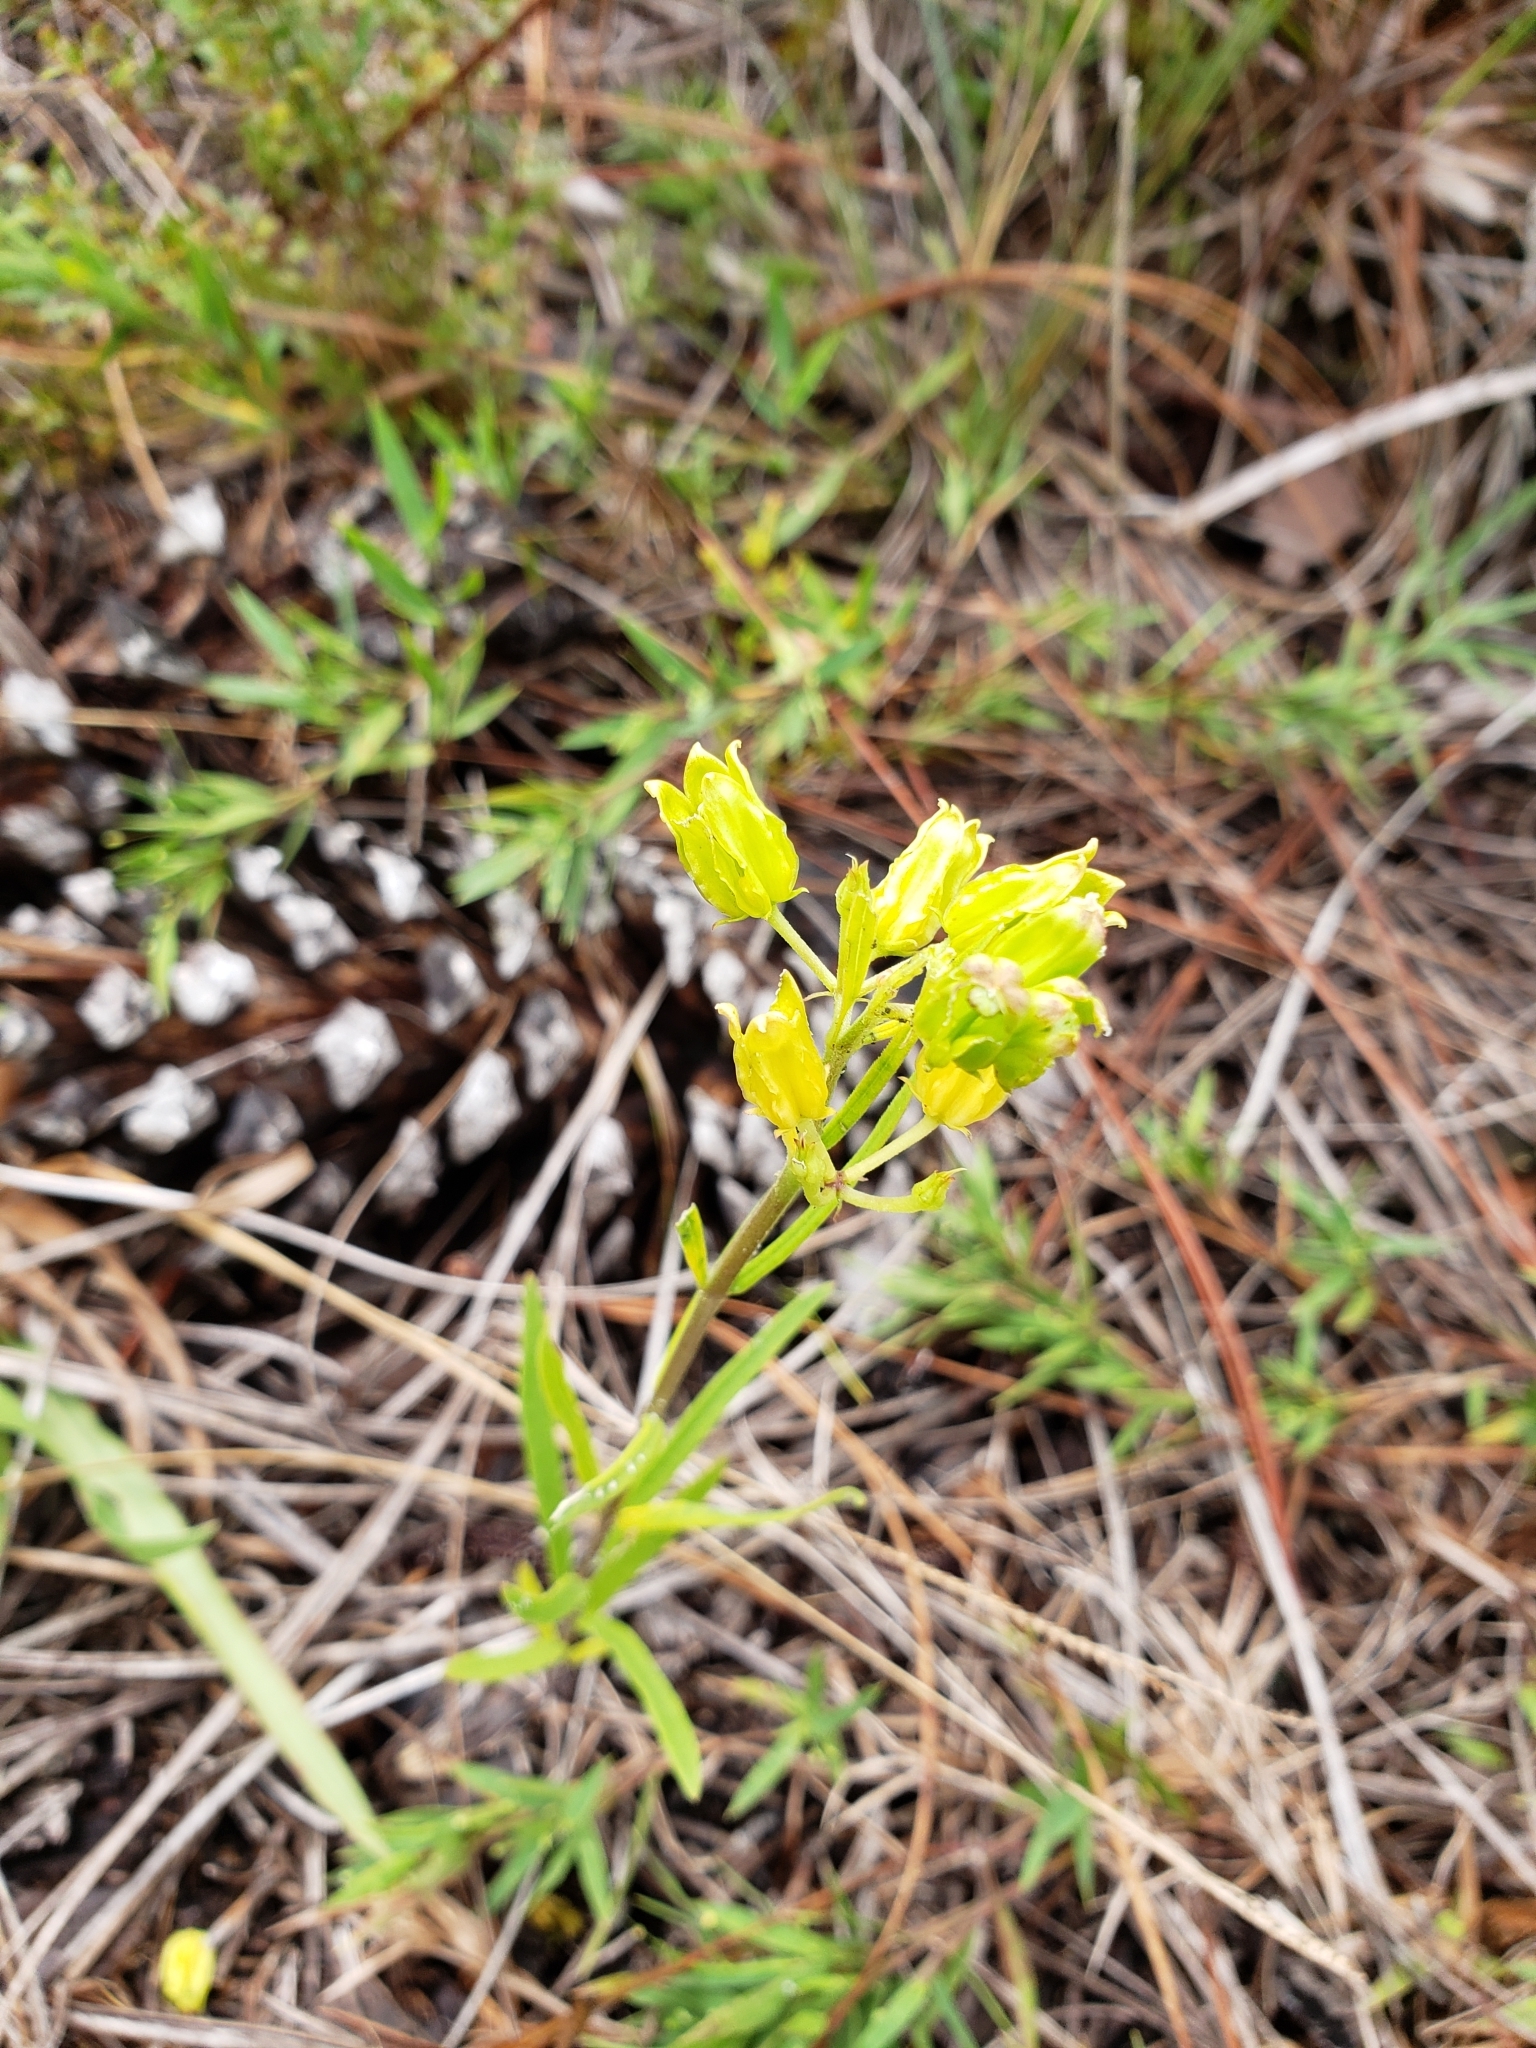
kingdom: Plantae
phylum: Tracheophyta
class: Magnoliopsida
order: Gentianales
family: Apocynaceae
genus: Asclepias
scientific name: Asclepias pedicellata
